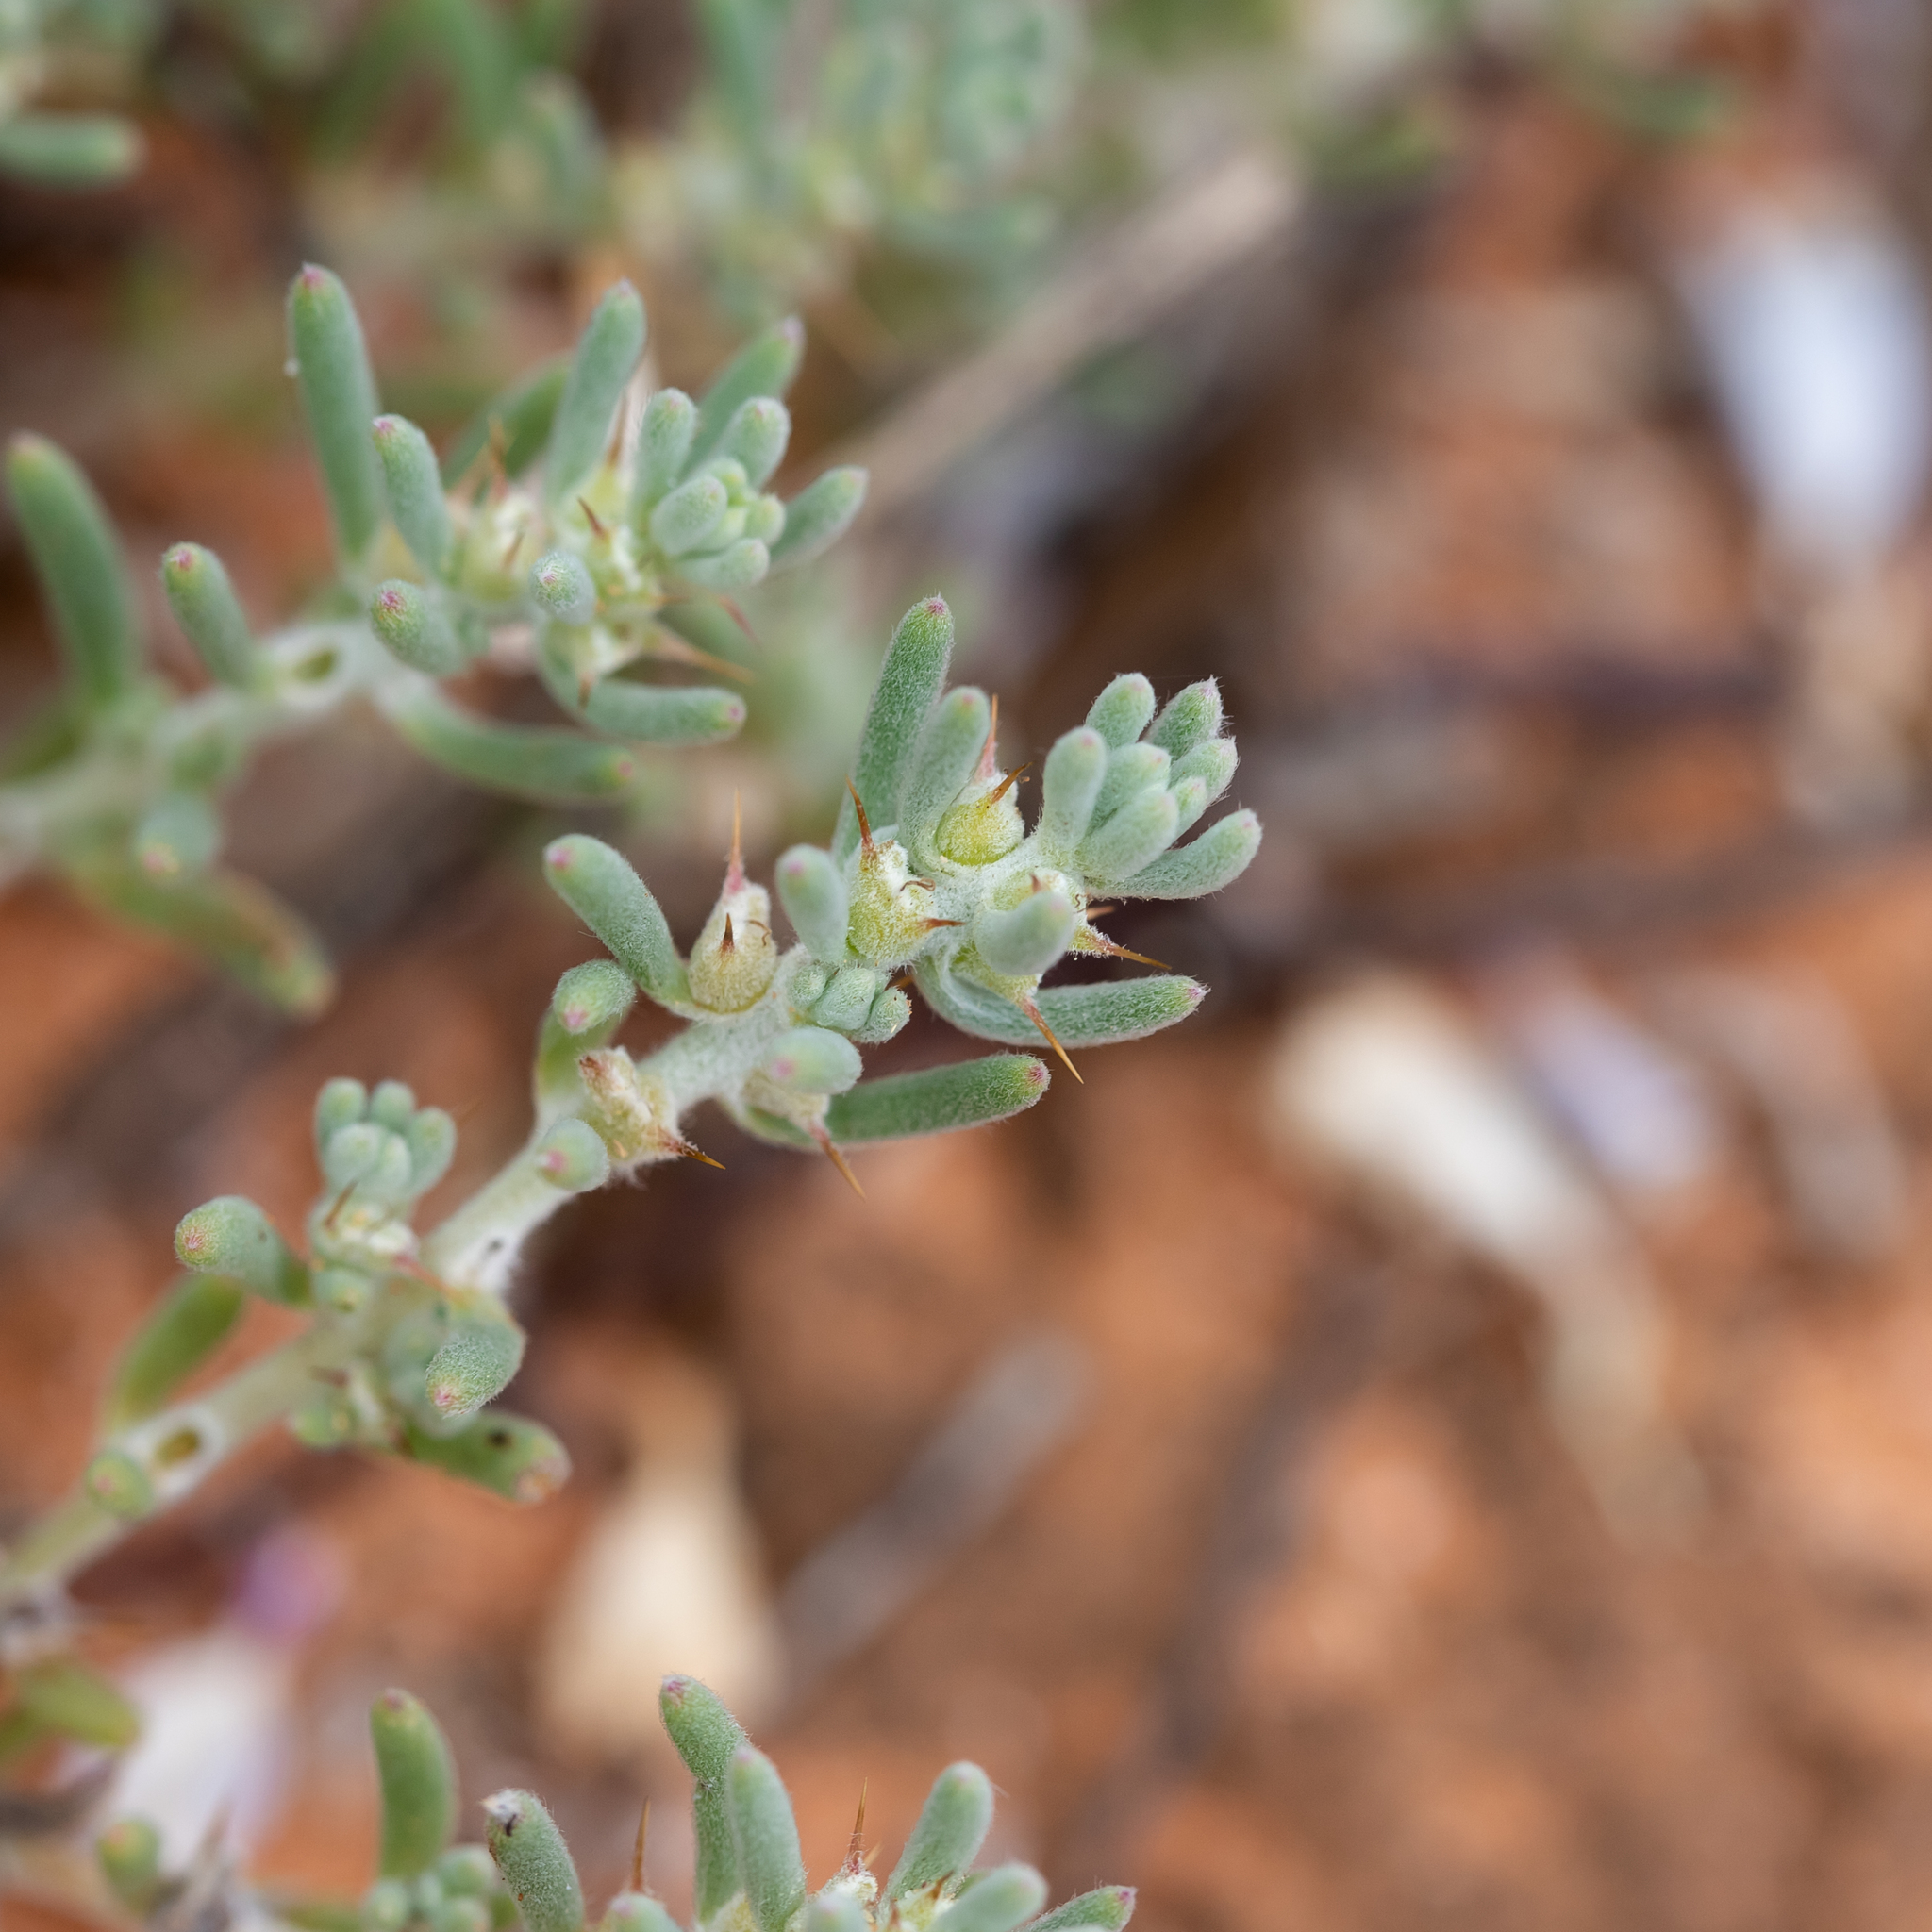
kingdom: Plantae
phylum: Tracheophyta
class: Magnoliopsida
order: Caryophyllales
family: Amaranthaceae
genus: Sclerolaena
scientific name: Sclerolaena diacantha
